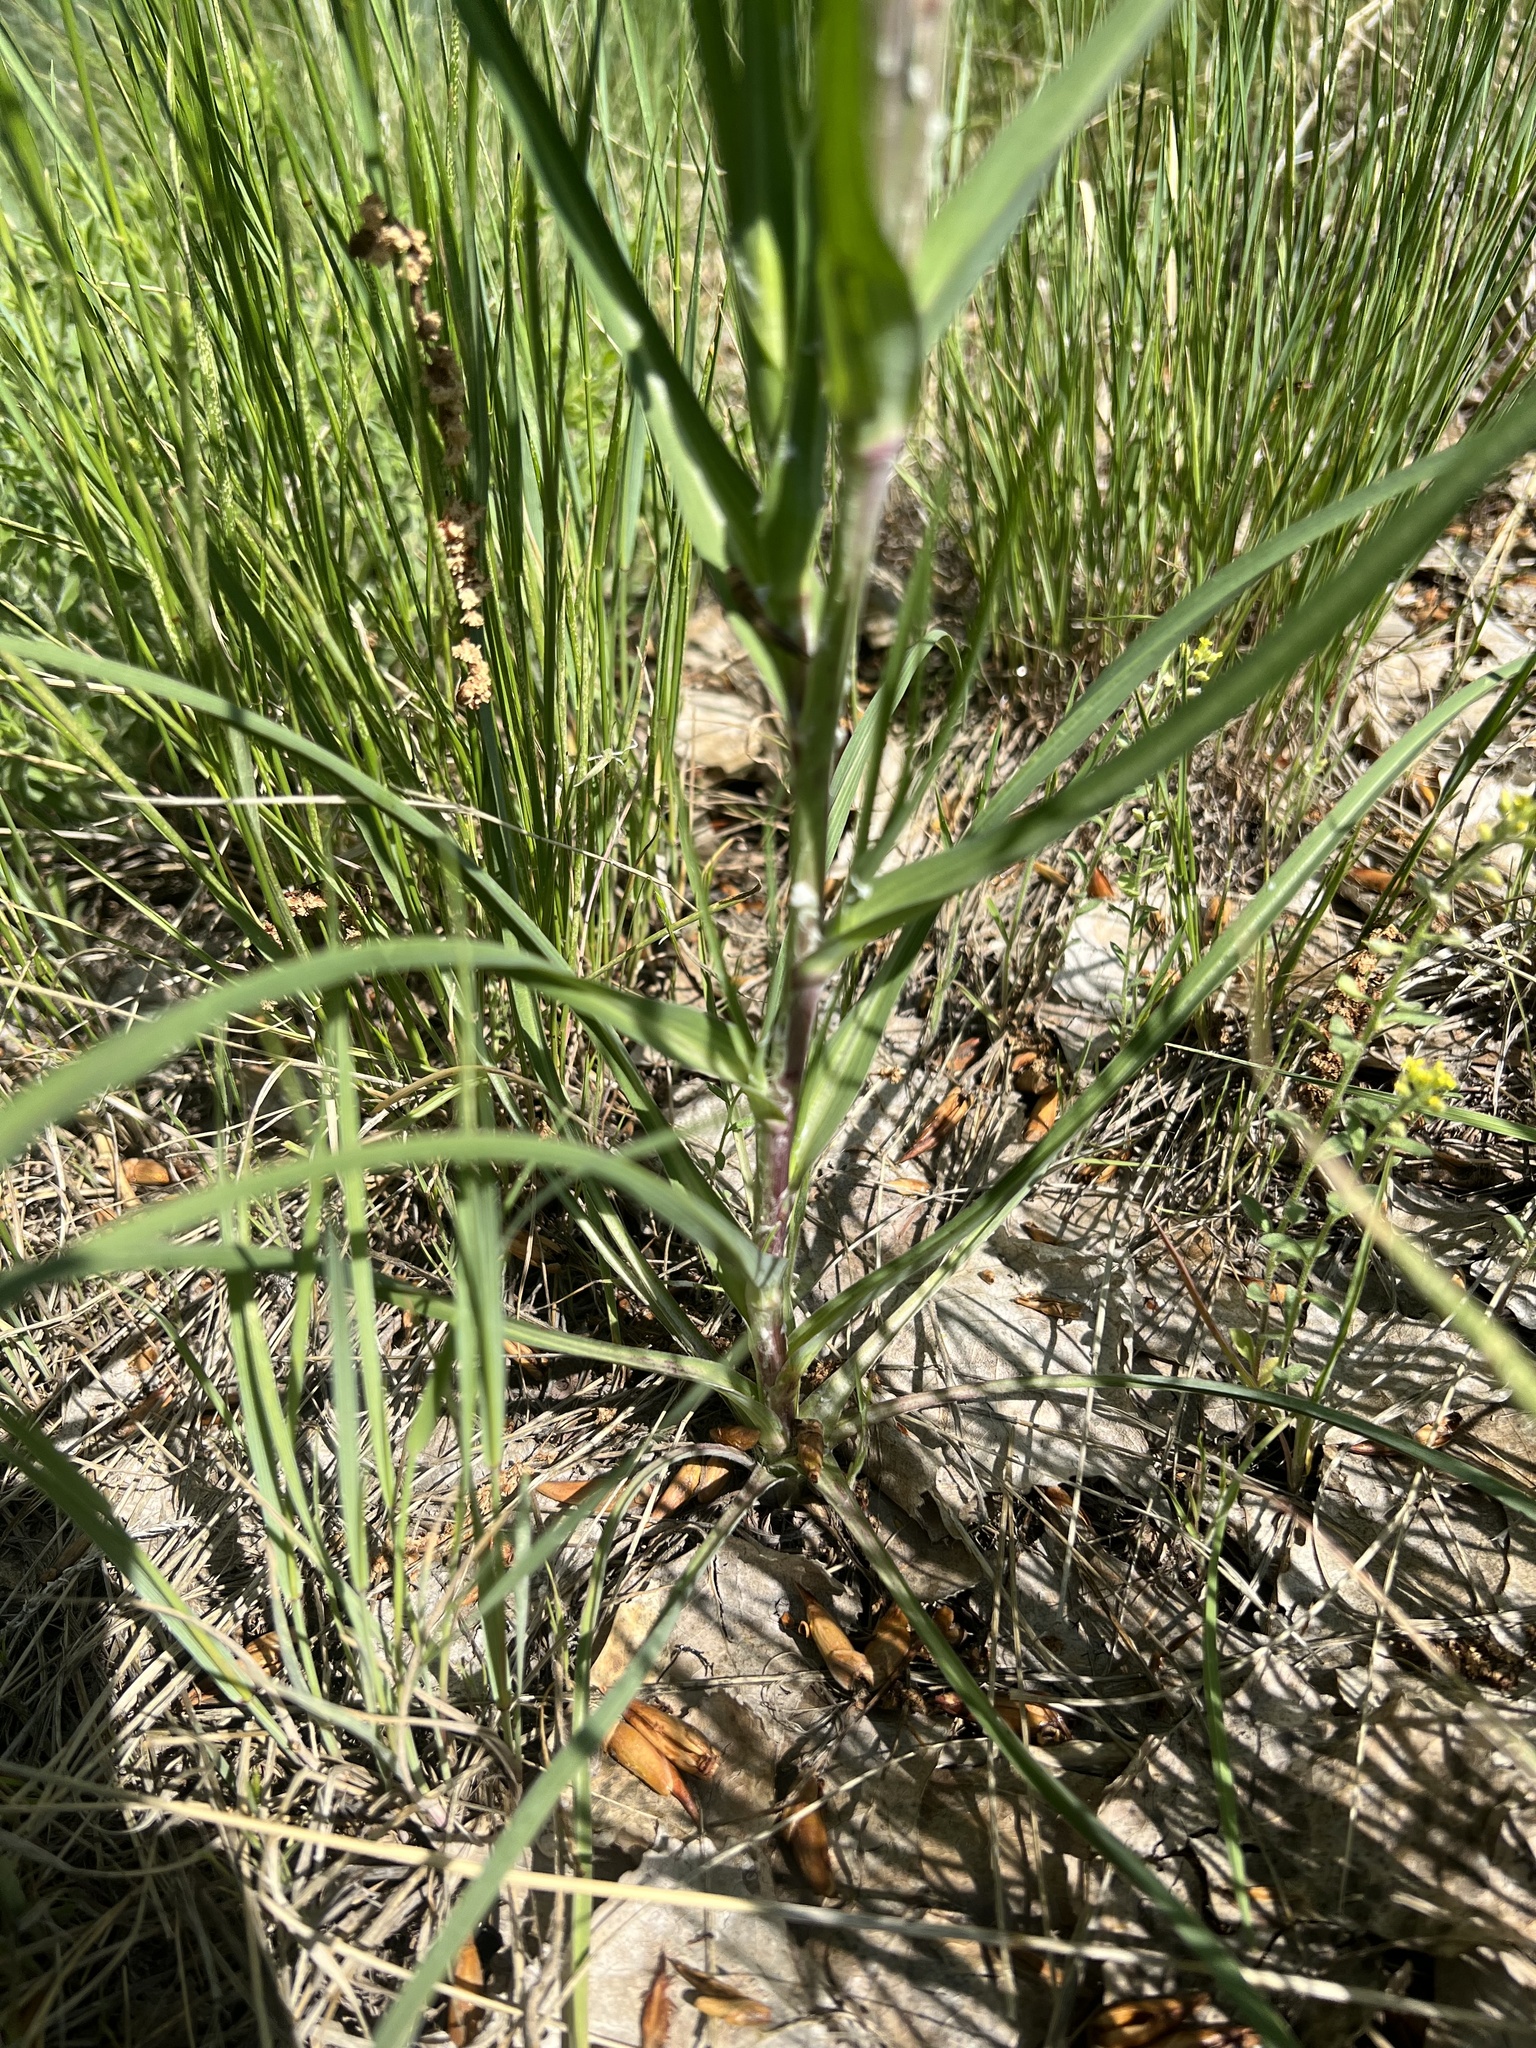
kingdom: Plantae
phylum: Tracheophyta
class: Magnoliopsida
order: Asterales
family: Asteraceae
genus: Tragopogon
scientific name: Tragopogon dubius
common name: Yellow salsify
